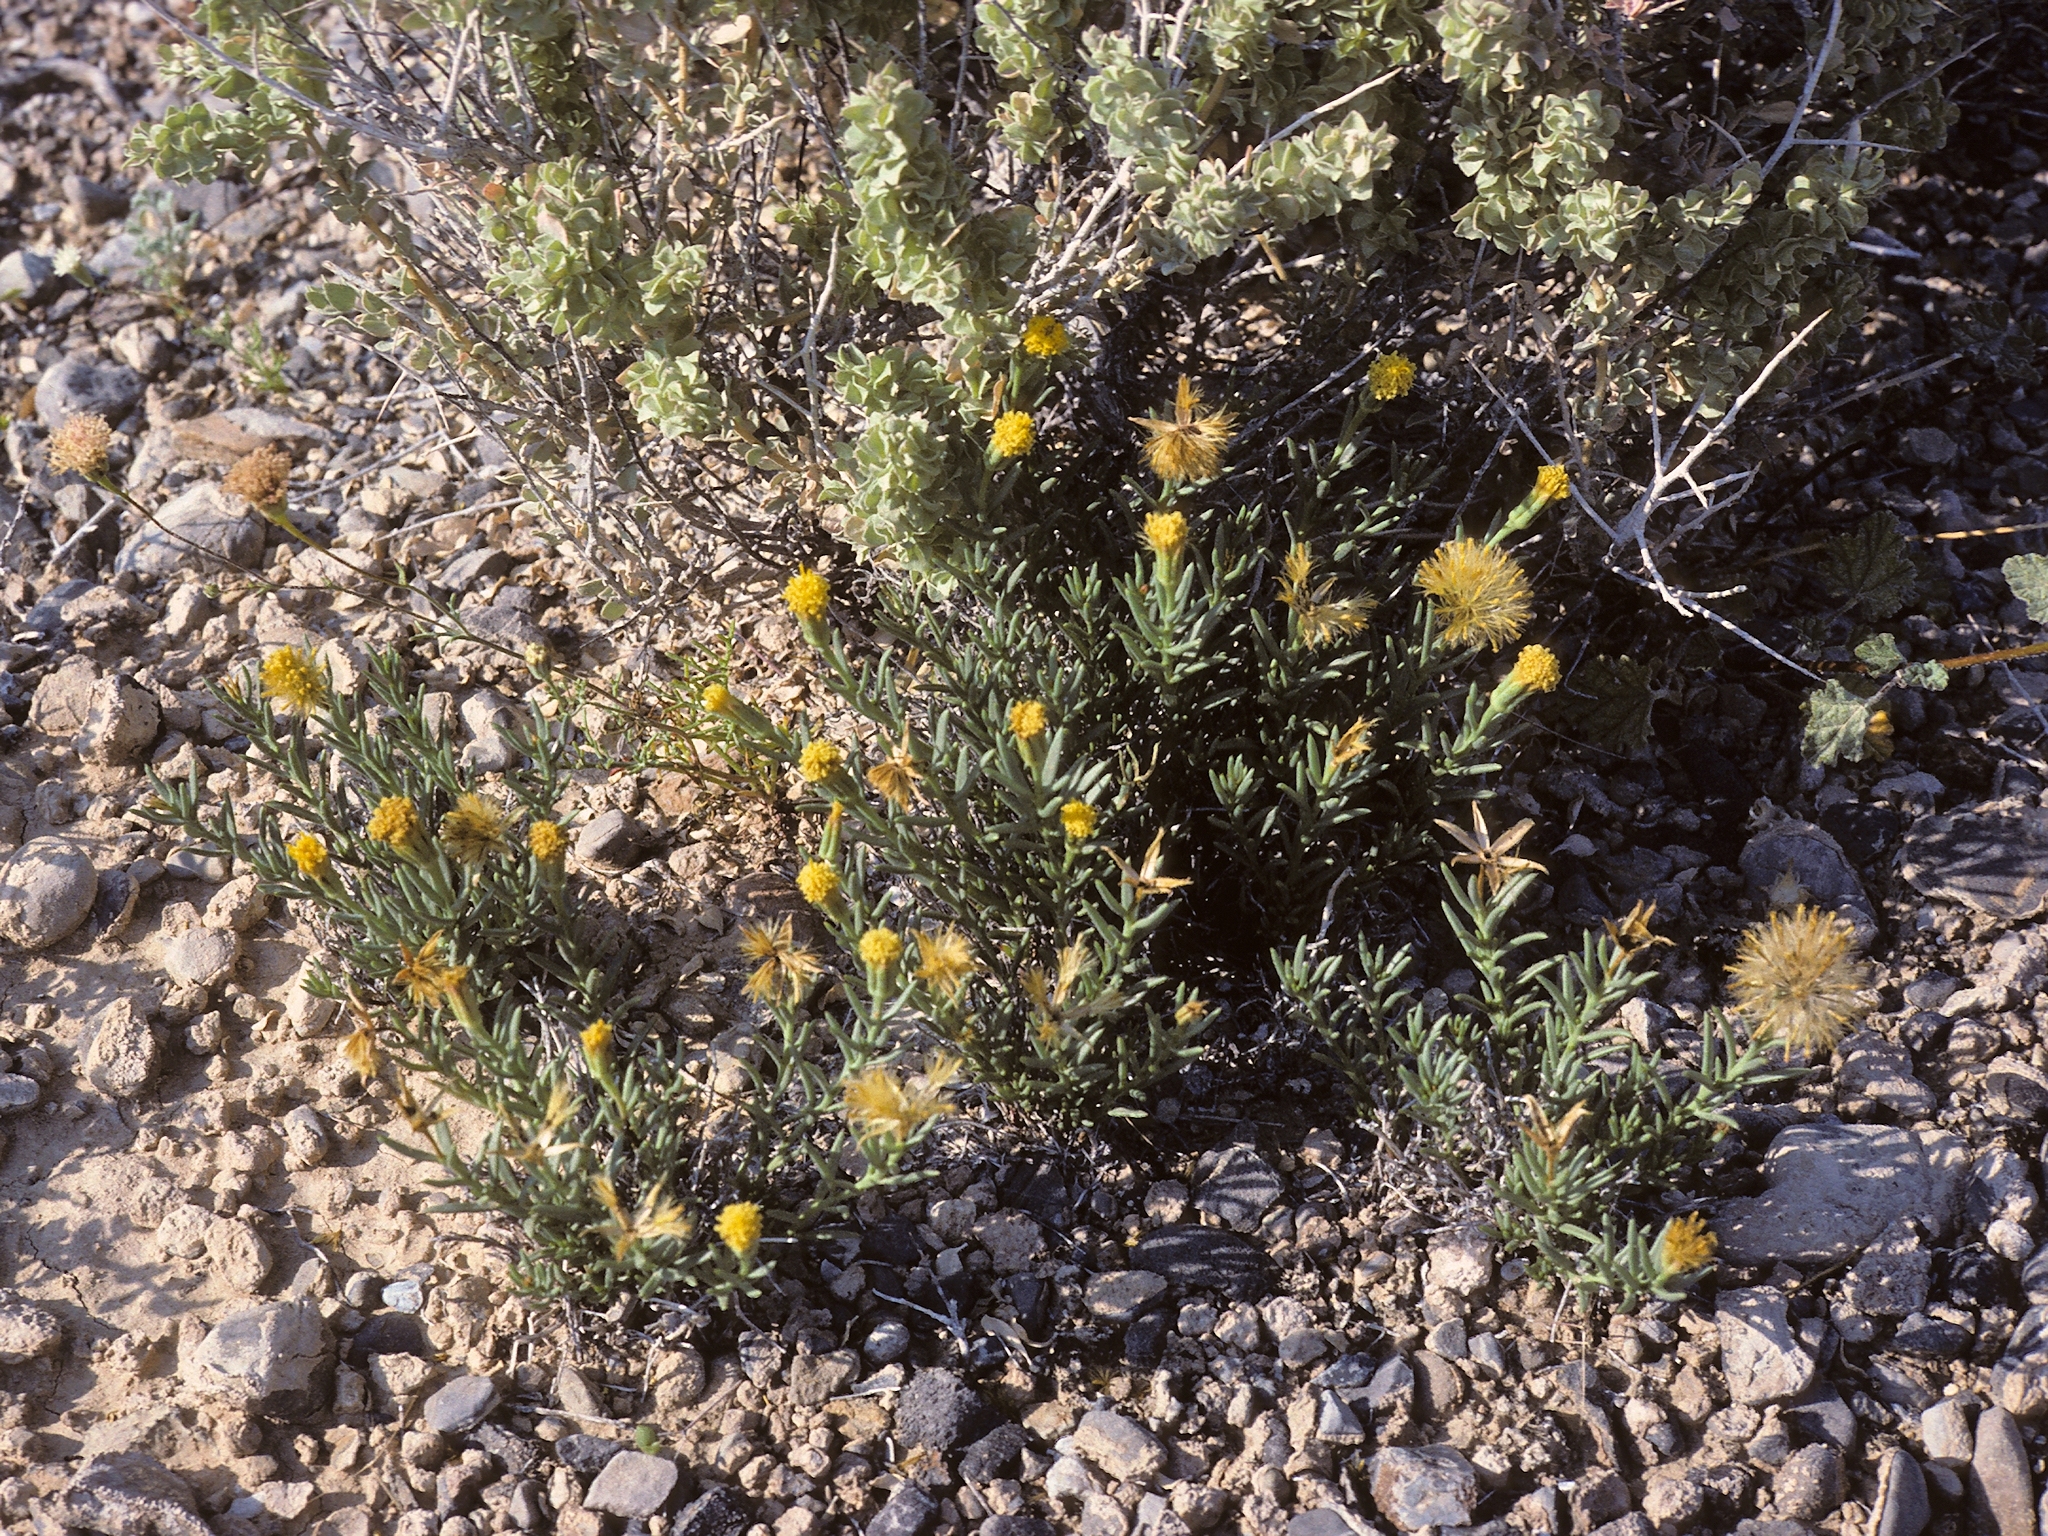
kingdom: Plantae
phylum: Tracheophyta
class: Magnoliopsida
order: Asterales
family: Asteraceae
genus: Porophyllum
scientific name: Porophyllum pygmaeum
